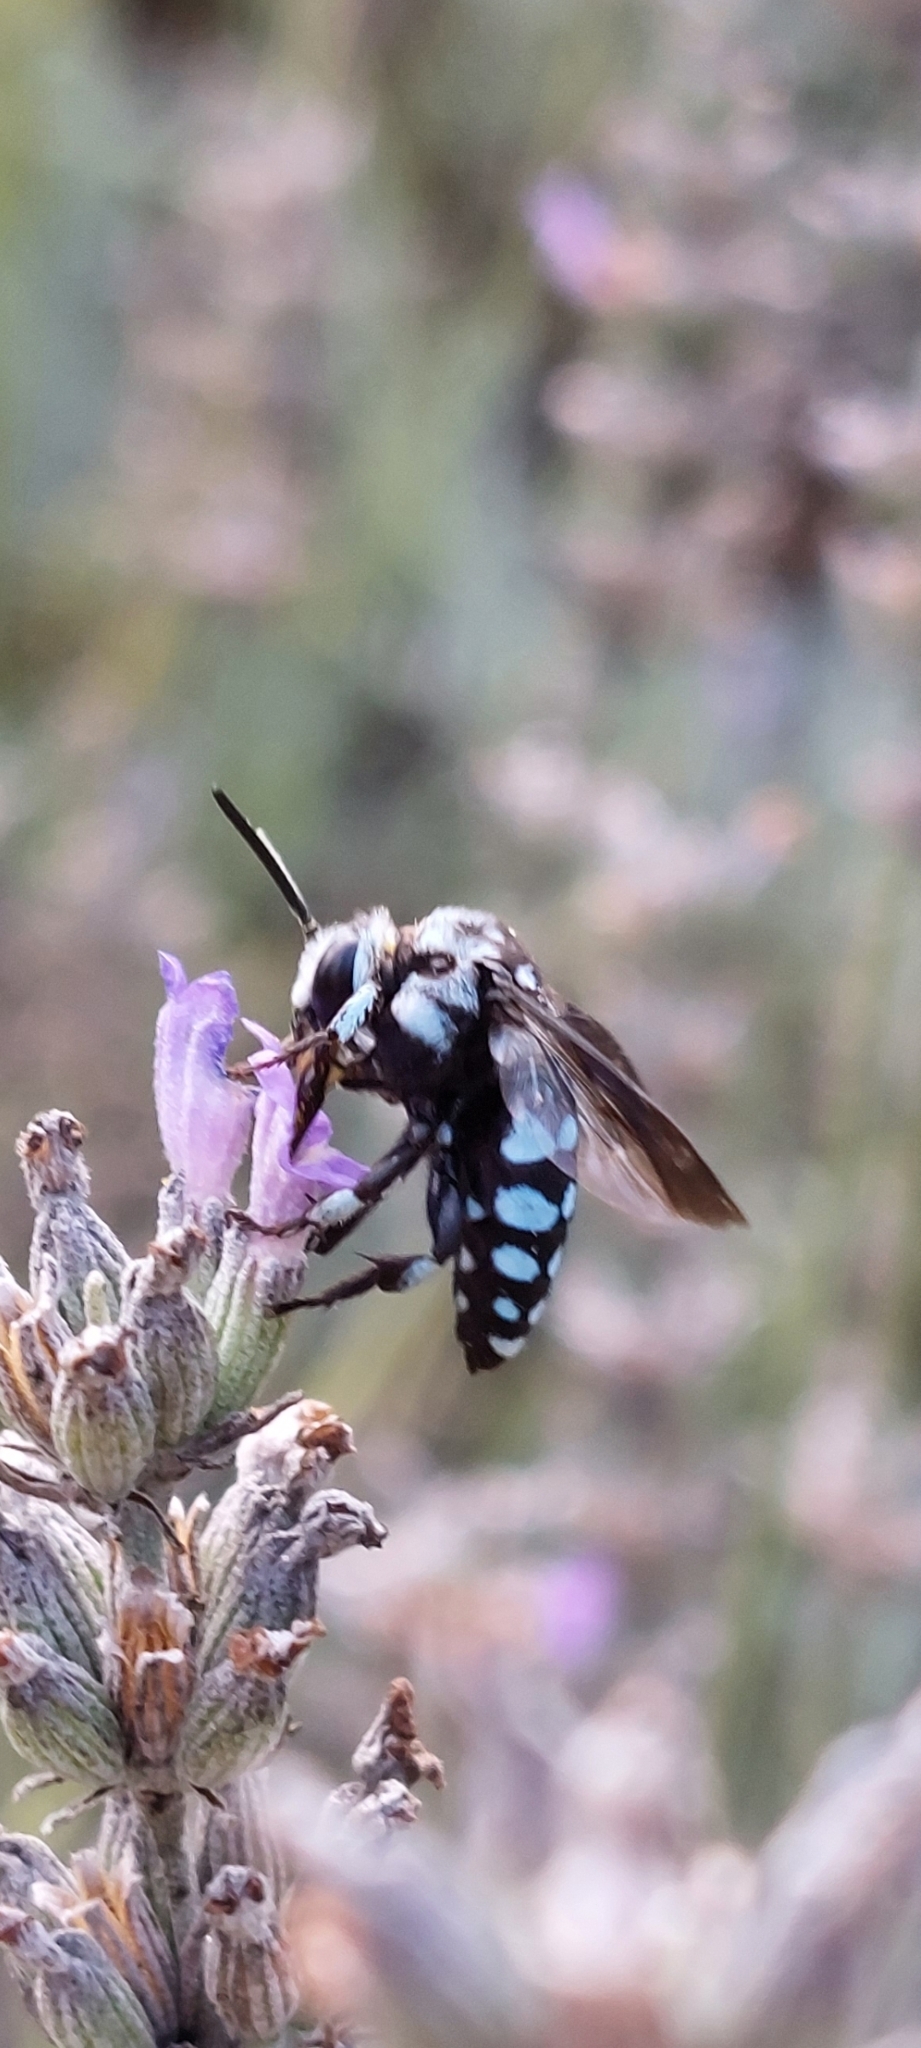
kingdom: Animalia
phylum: Arthropoda
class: Insecta
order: Hymenoptera
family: Apidae
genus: Thyreus
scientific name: Thyreus caeruleopunctatus
